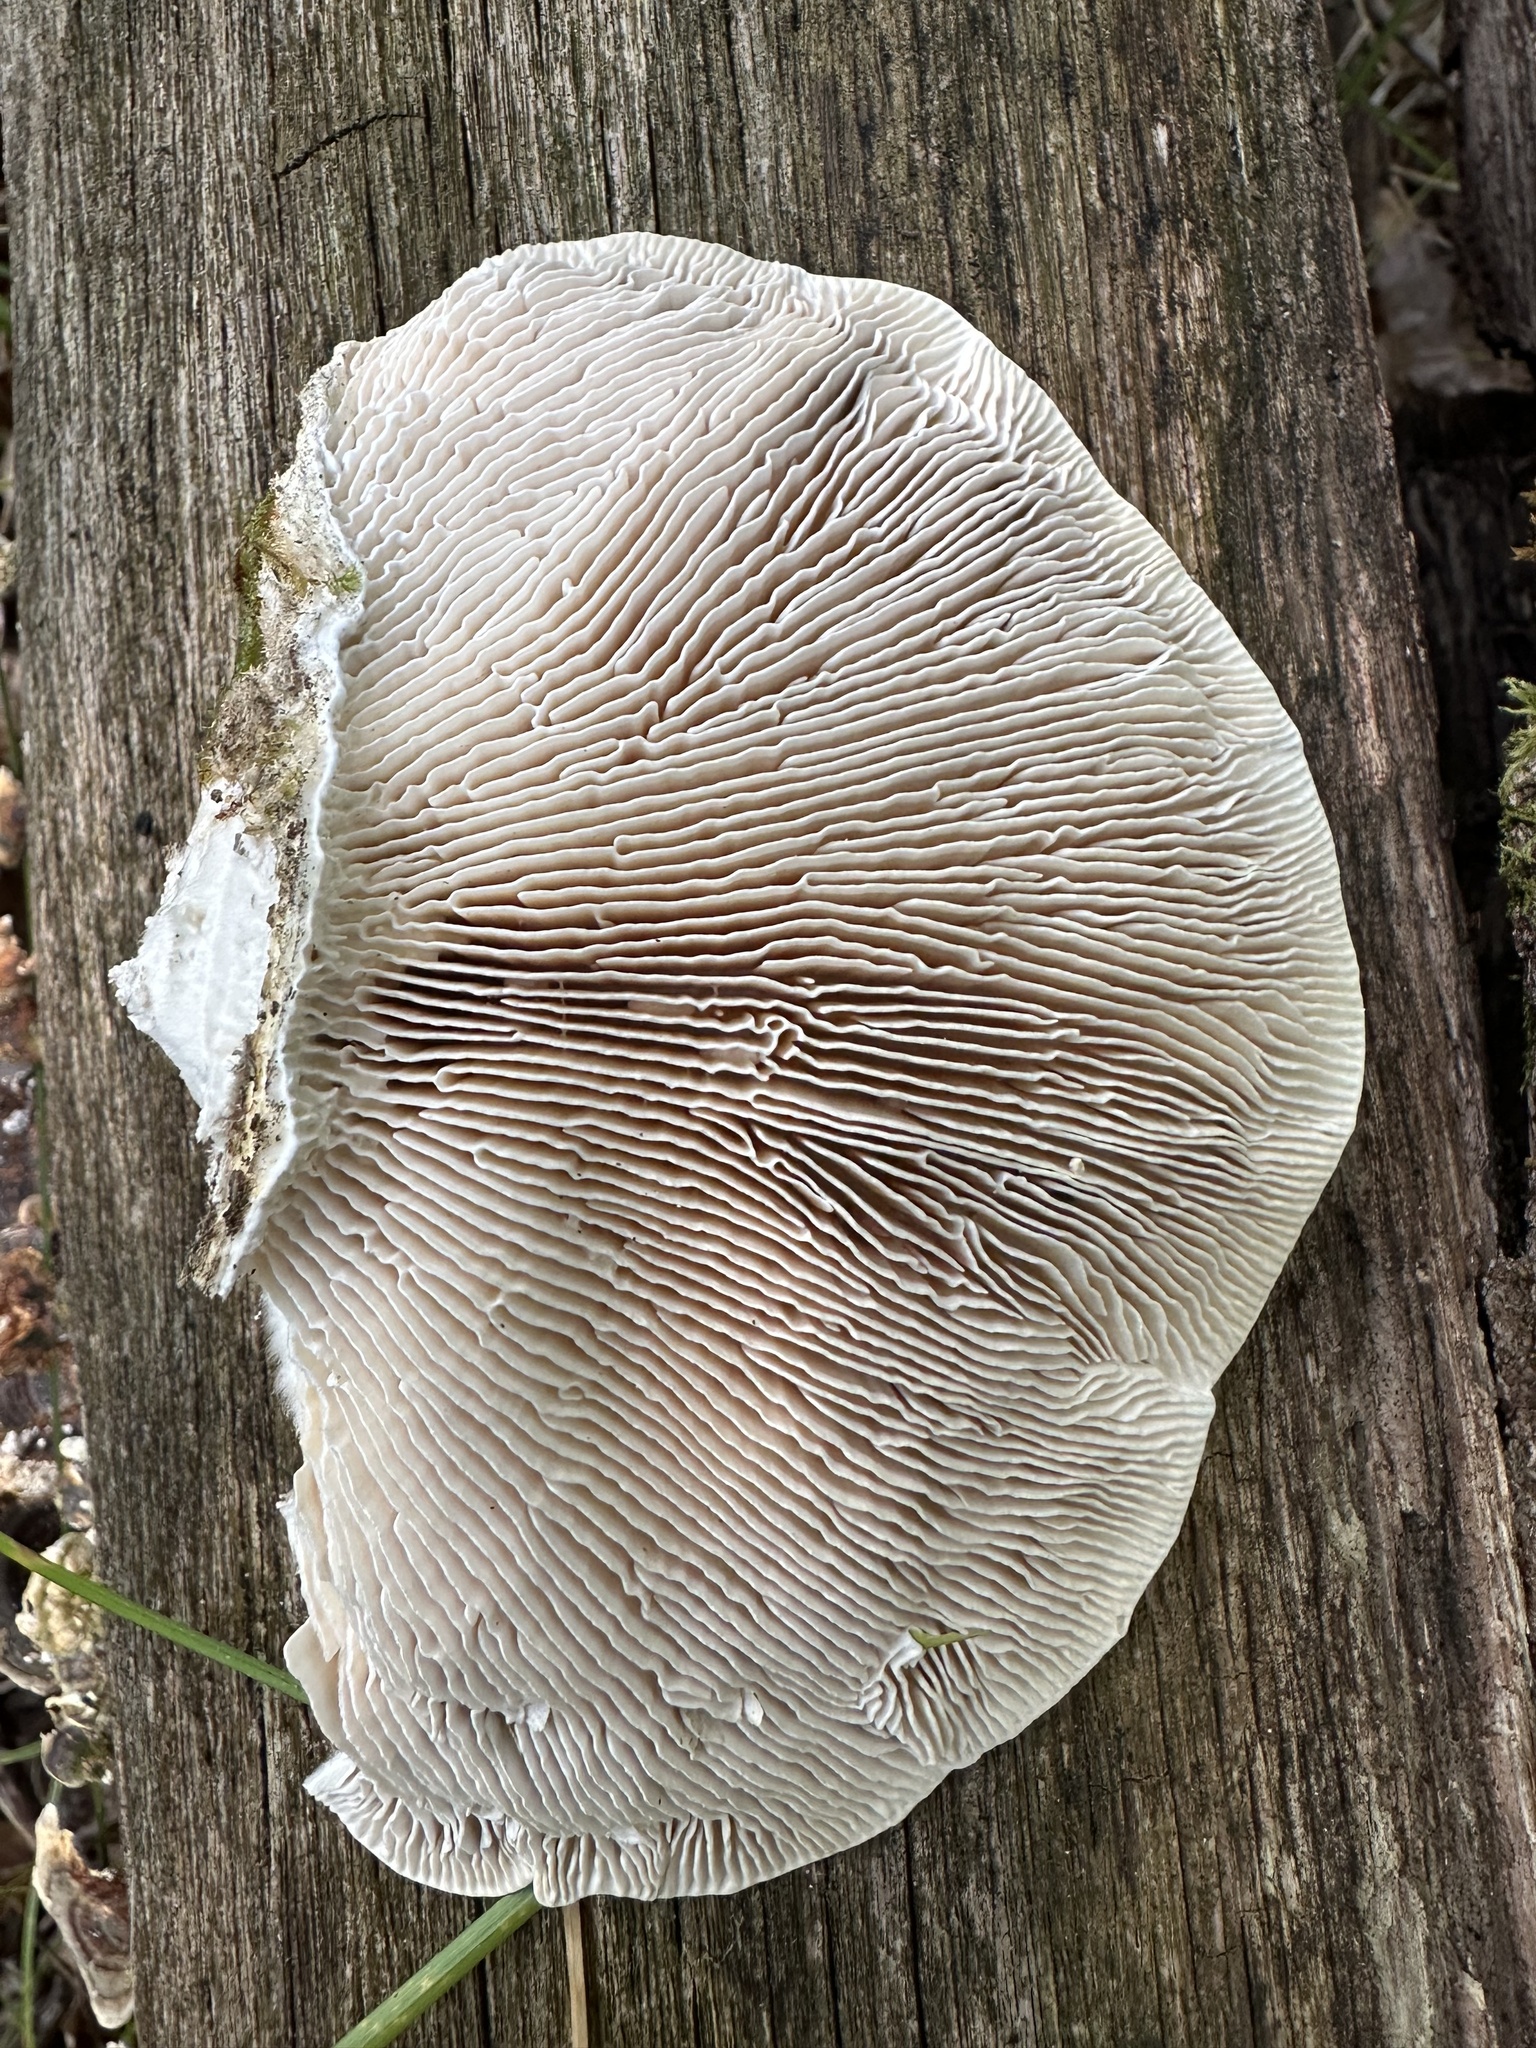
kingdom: Fungi
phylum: Basidiomycota
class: Agaricomycetes
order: Polyporales
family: Fomitopsidaceae
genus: Fomitopsis
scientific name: Fomitopsis
